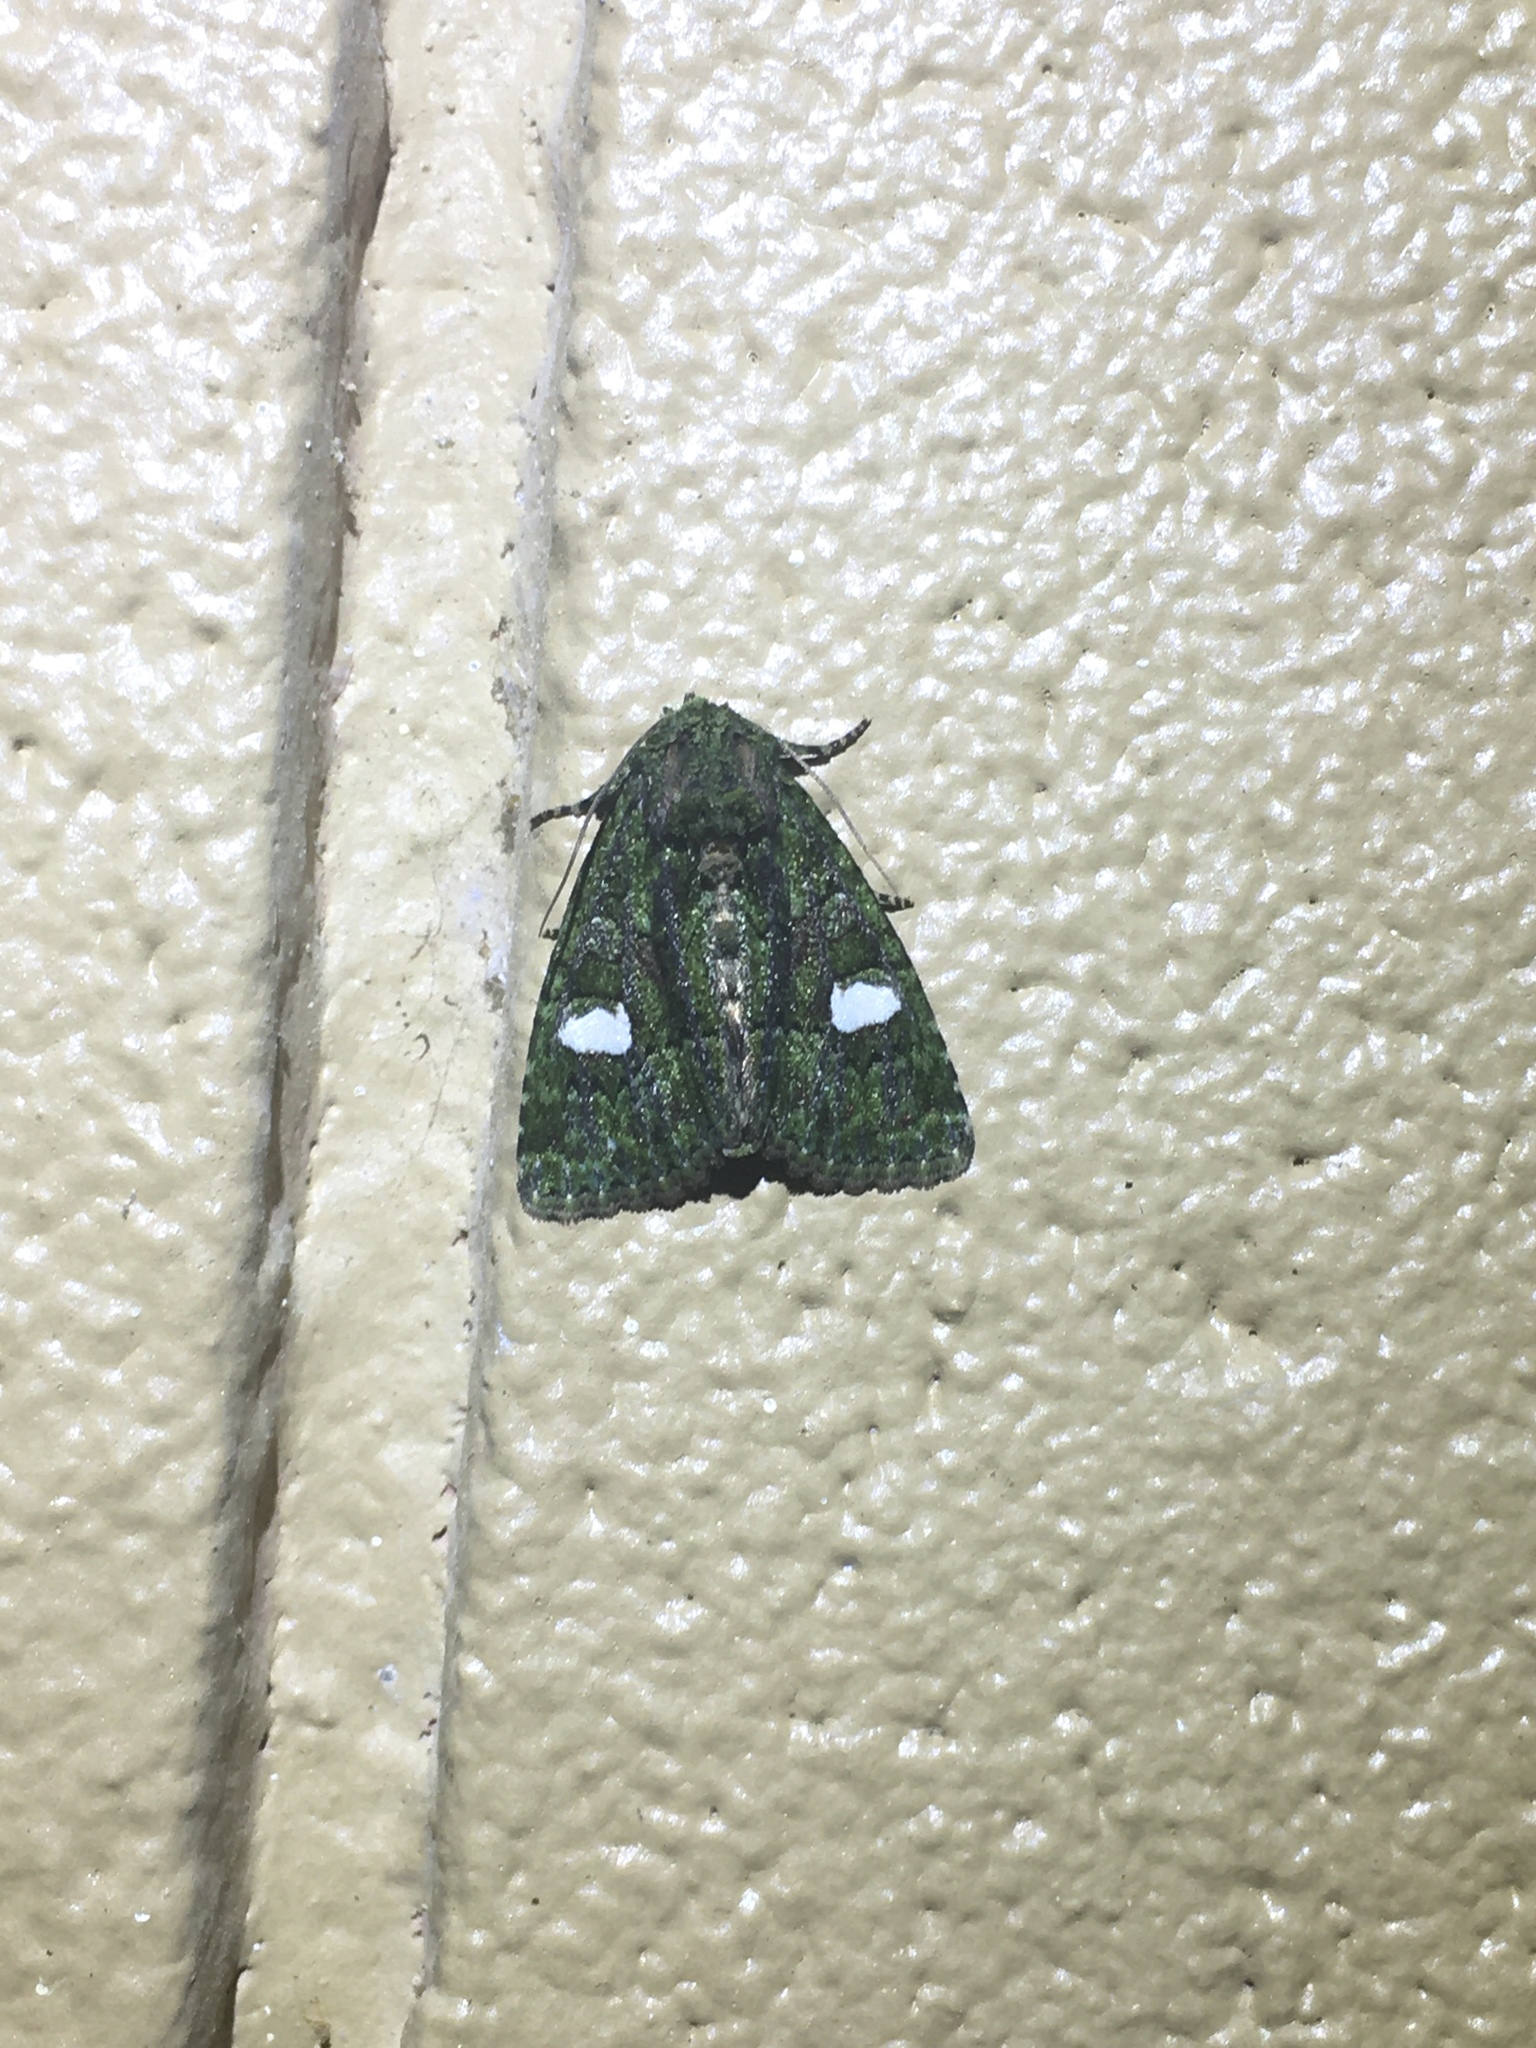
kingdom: Animalia
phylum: Arthropoda
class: Insecta
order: Lepidoptera
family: Noctuidae
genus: Phosphila
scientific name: Phosphila miselioides
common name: Spotted phosphila moth
